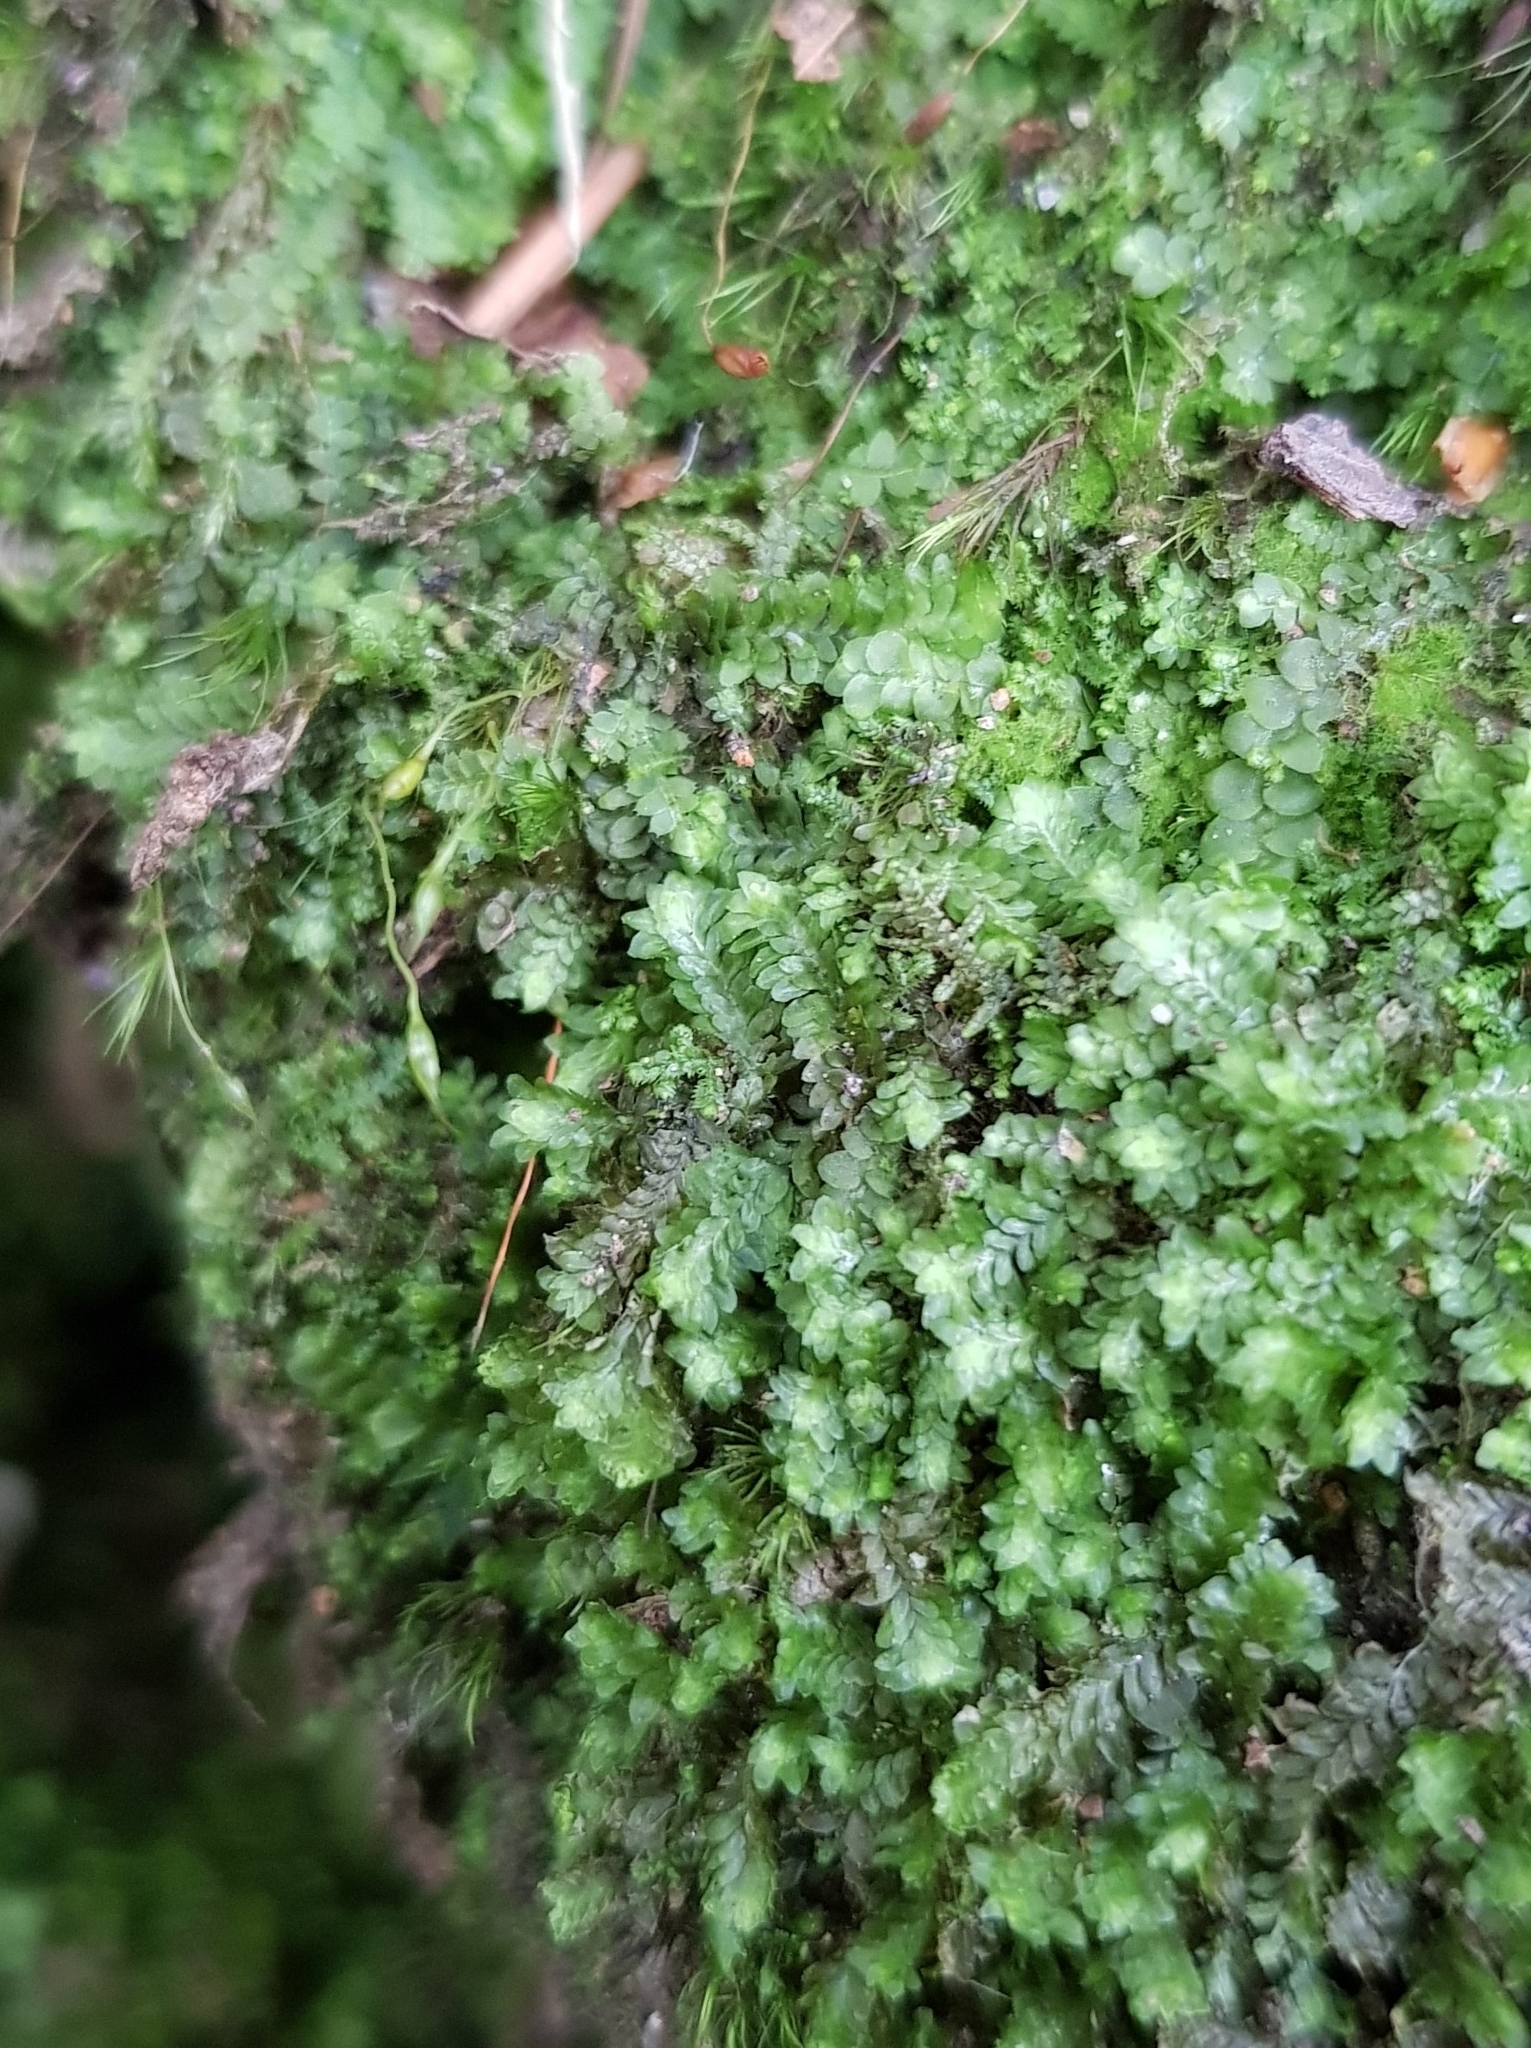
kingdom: Plantae
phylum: Marchantiophyta
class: Jungermanniopsida
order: Jungermanniales
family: Scapaniaceae
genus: Diplophyllum
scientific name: Diplophyllum albicans
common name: White earwort
